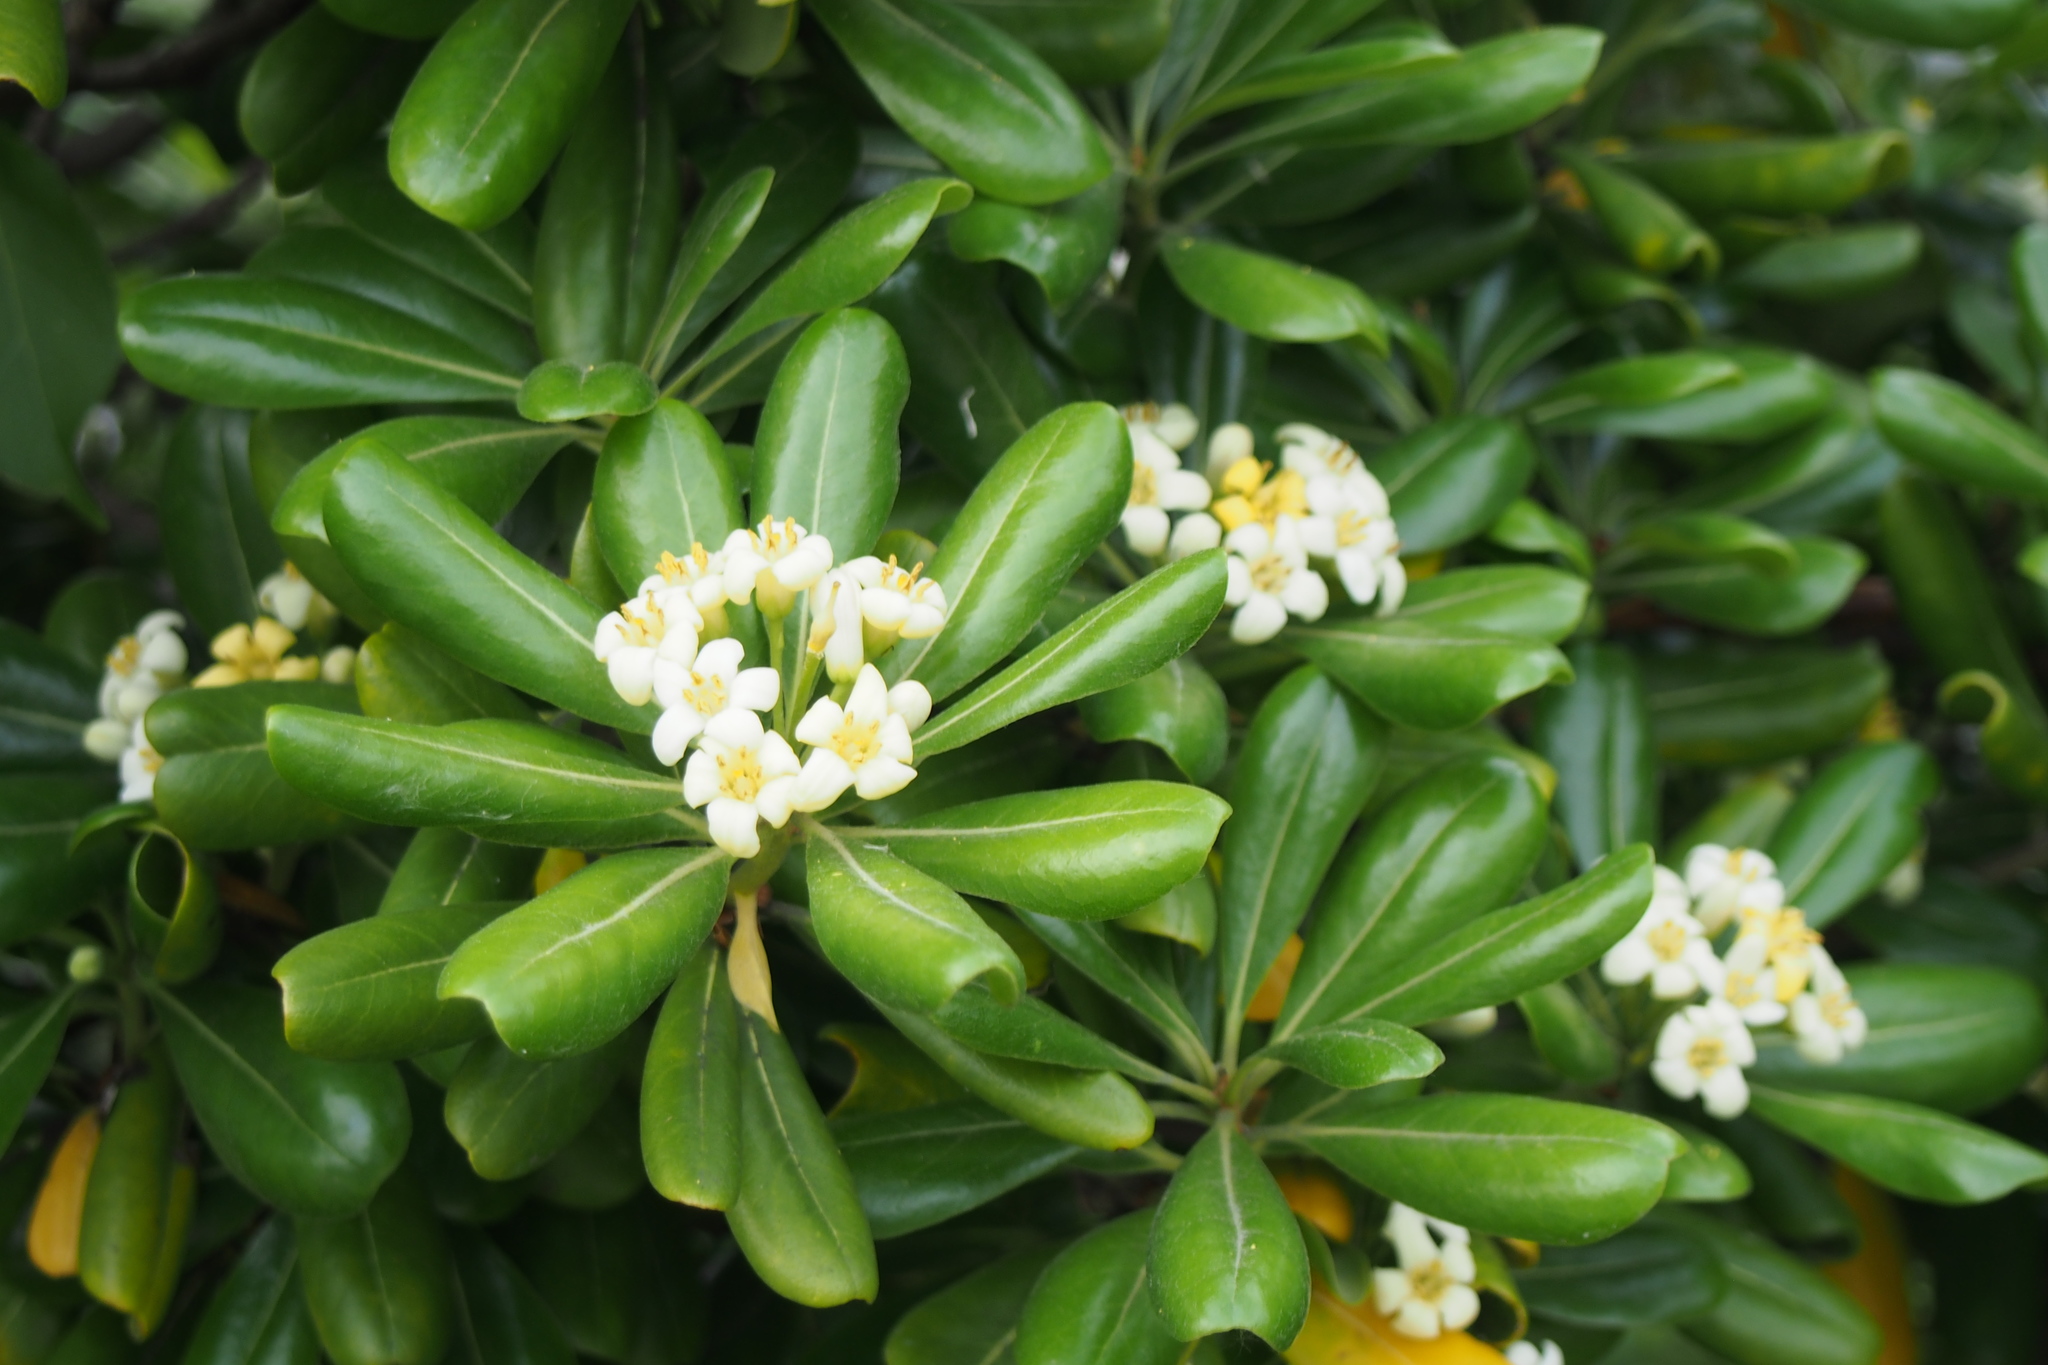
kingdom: Plantae
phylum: Tracheophyta
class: Magnoliopsida
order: Apiales
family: Pittosporaceae
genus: Pittosporum
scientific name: Pittosporum tobira
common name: Japanese cheesewood
